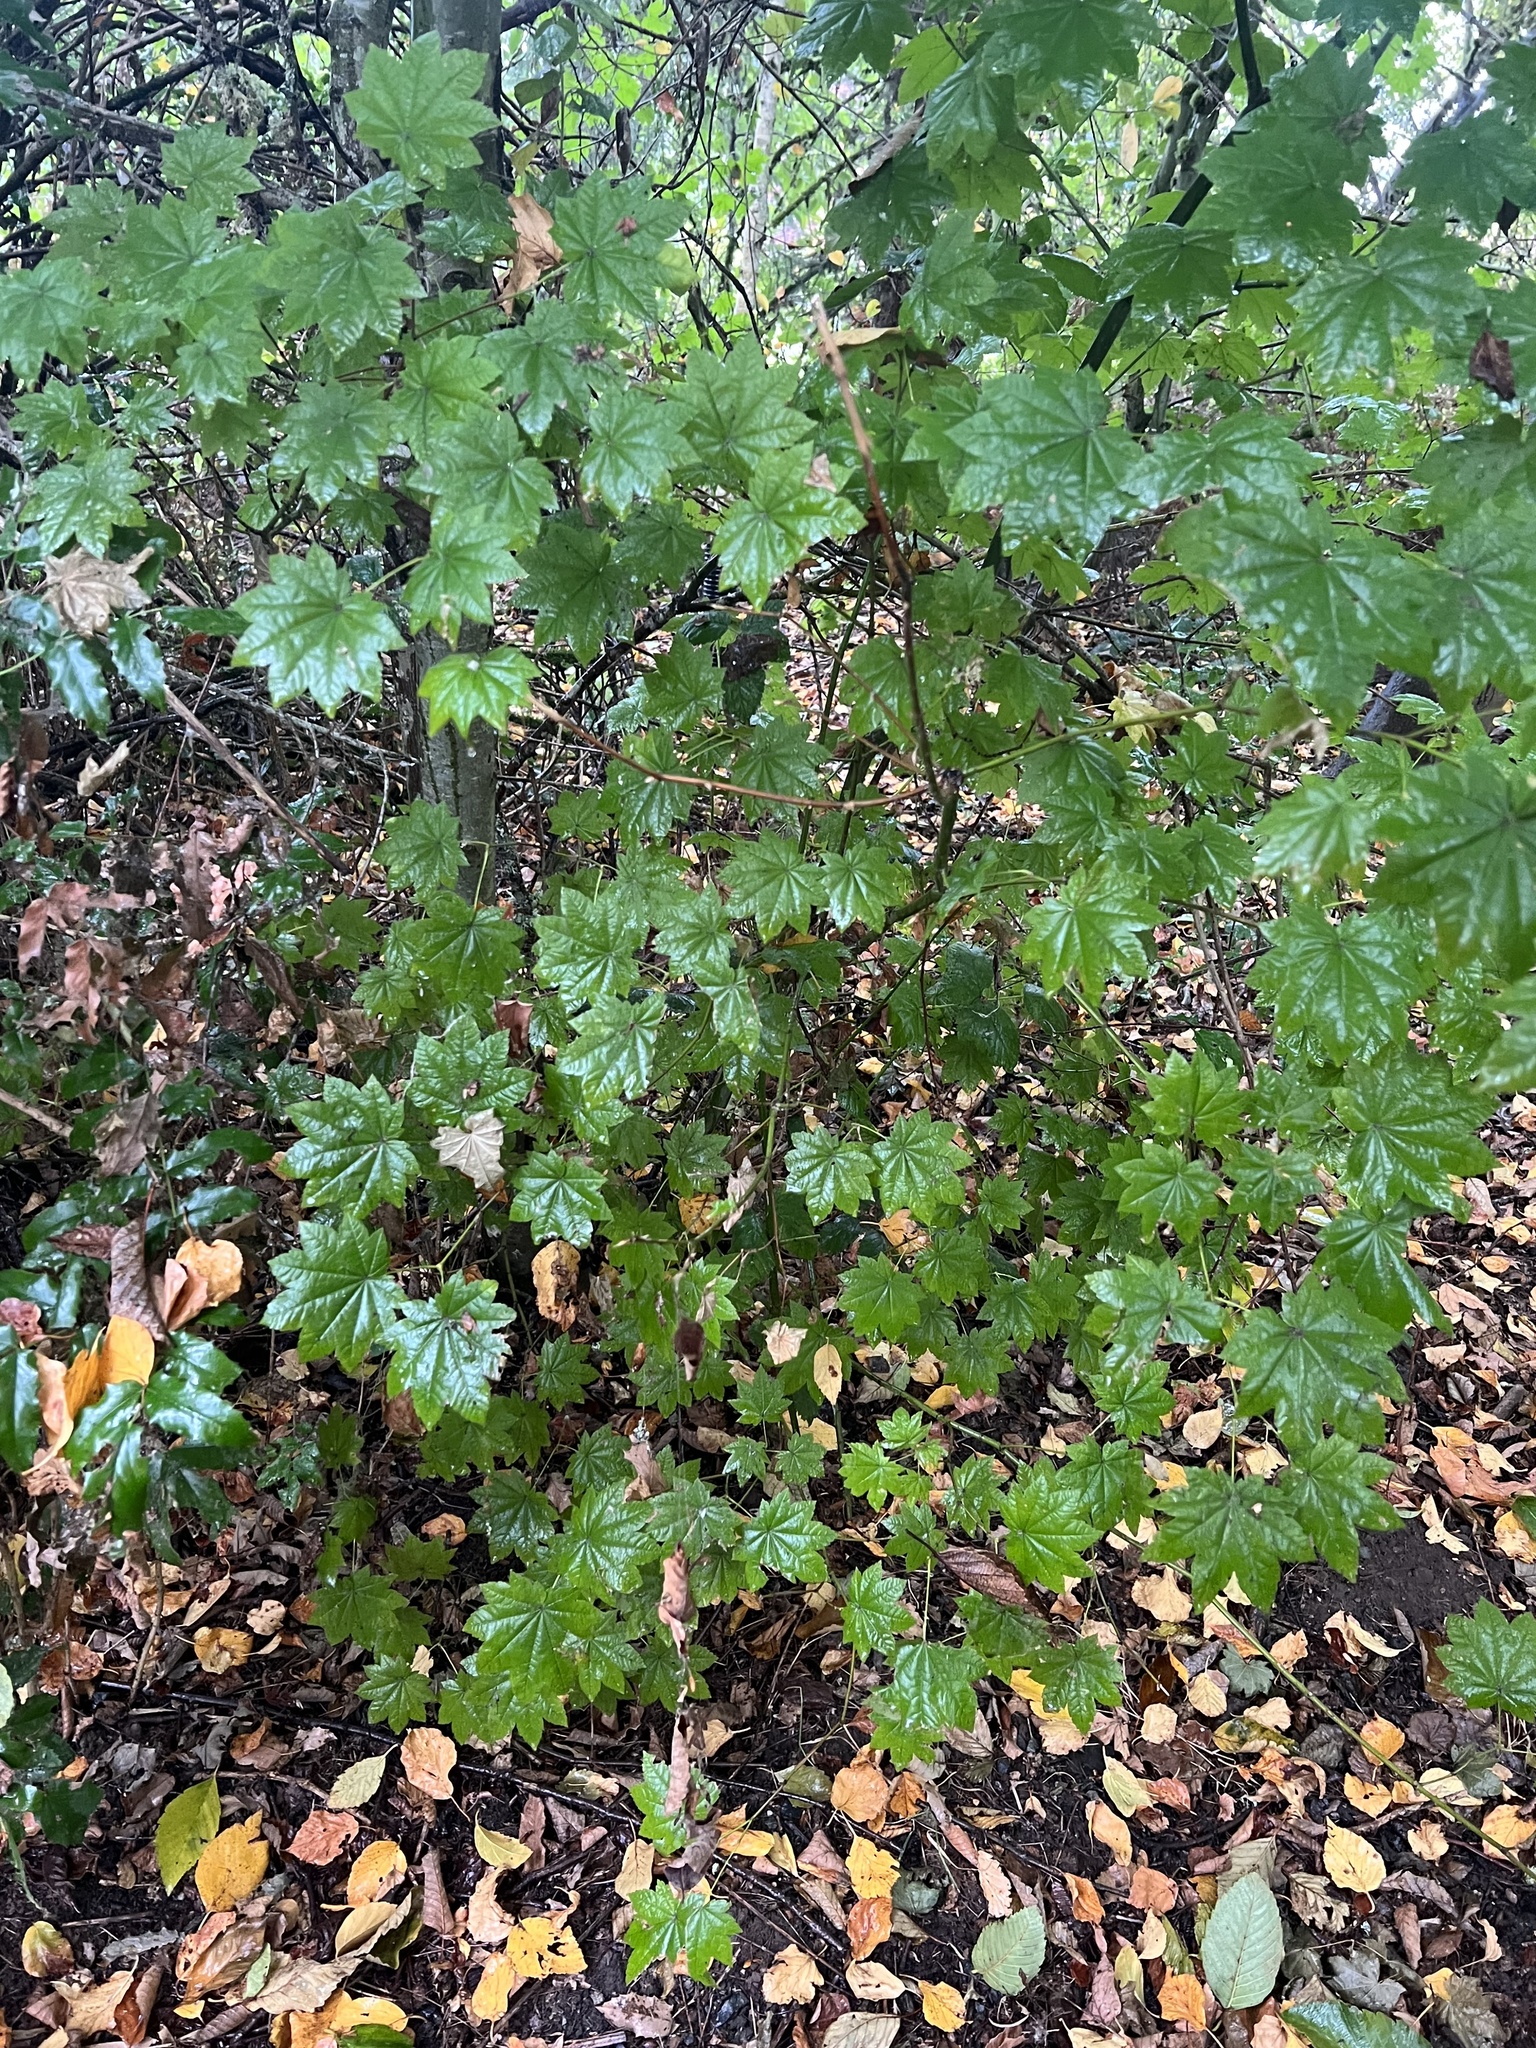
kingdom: Plantae
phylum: Tracheophyta
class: Magnoliopsida
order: Sapindales
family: Sapindaceae
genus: Acer
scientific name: Acer circinatum
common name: Vine maple
